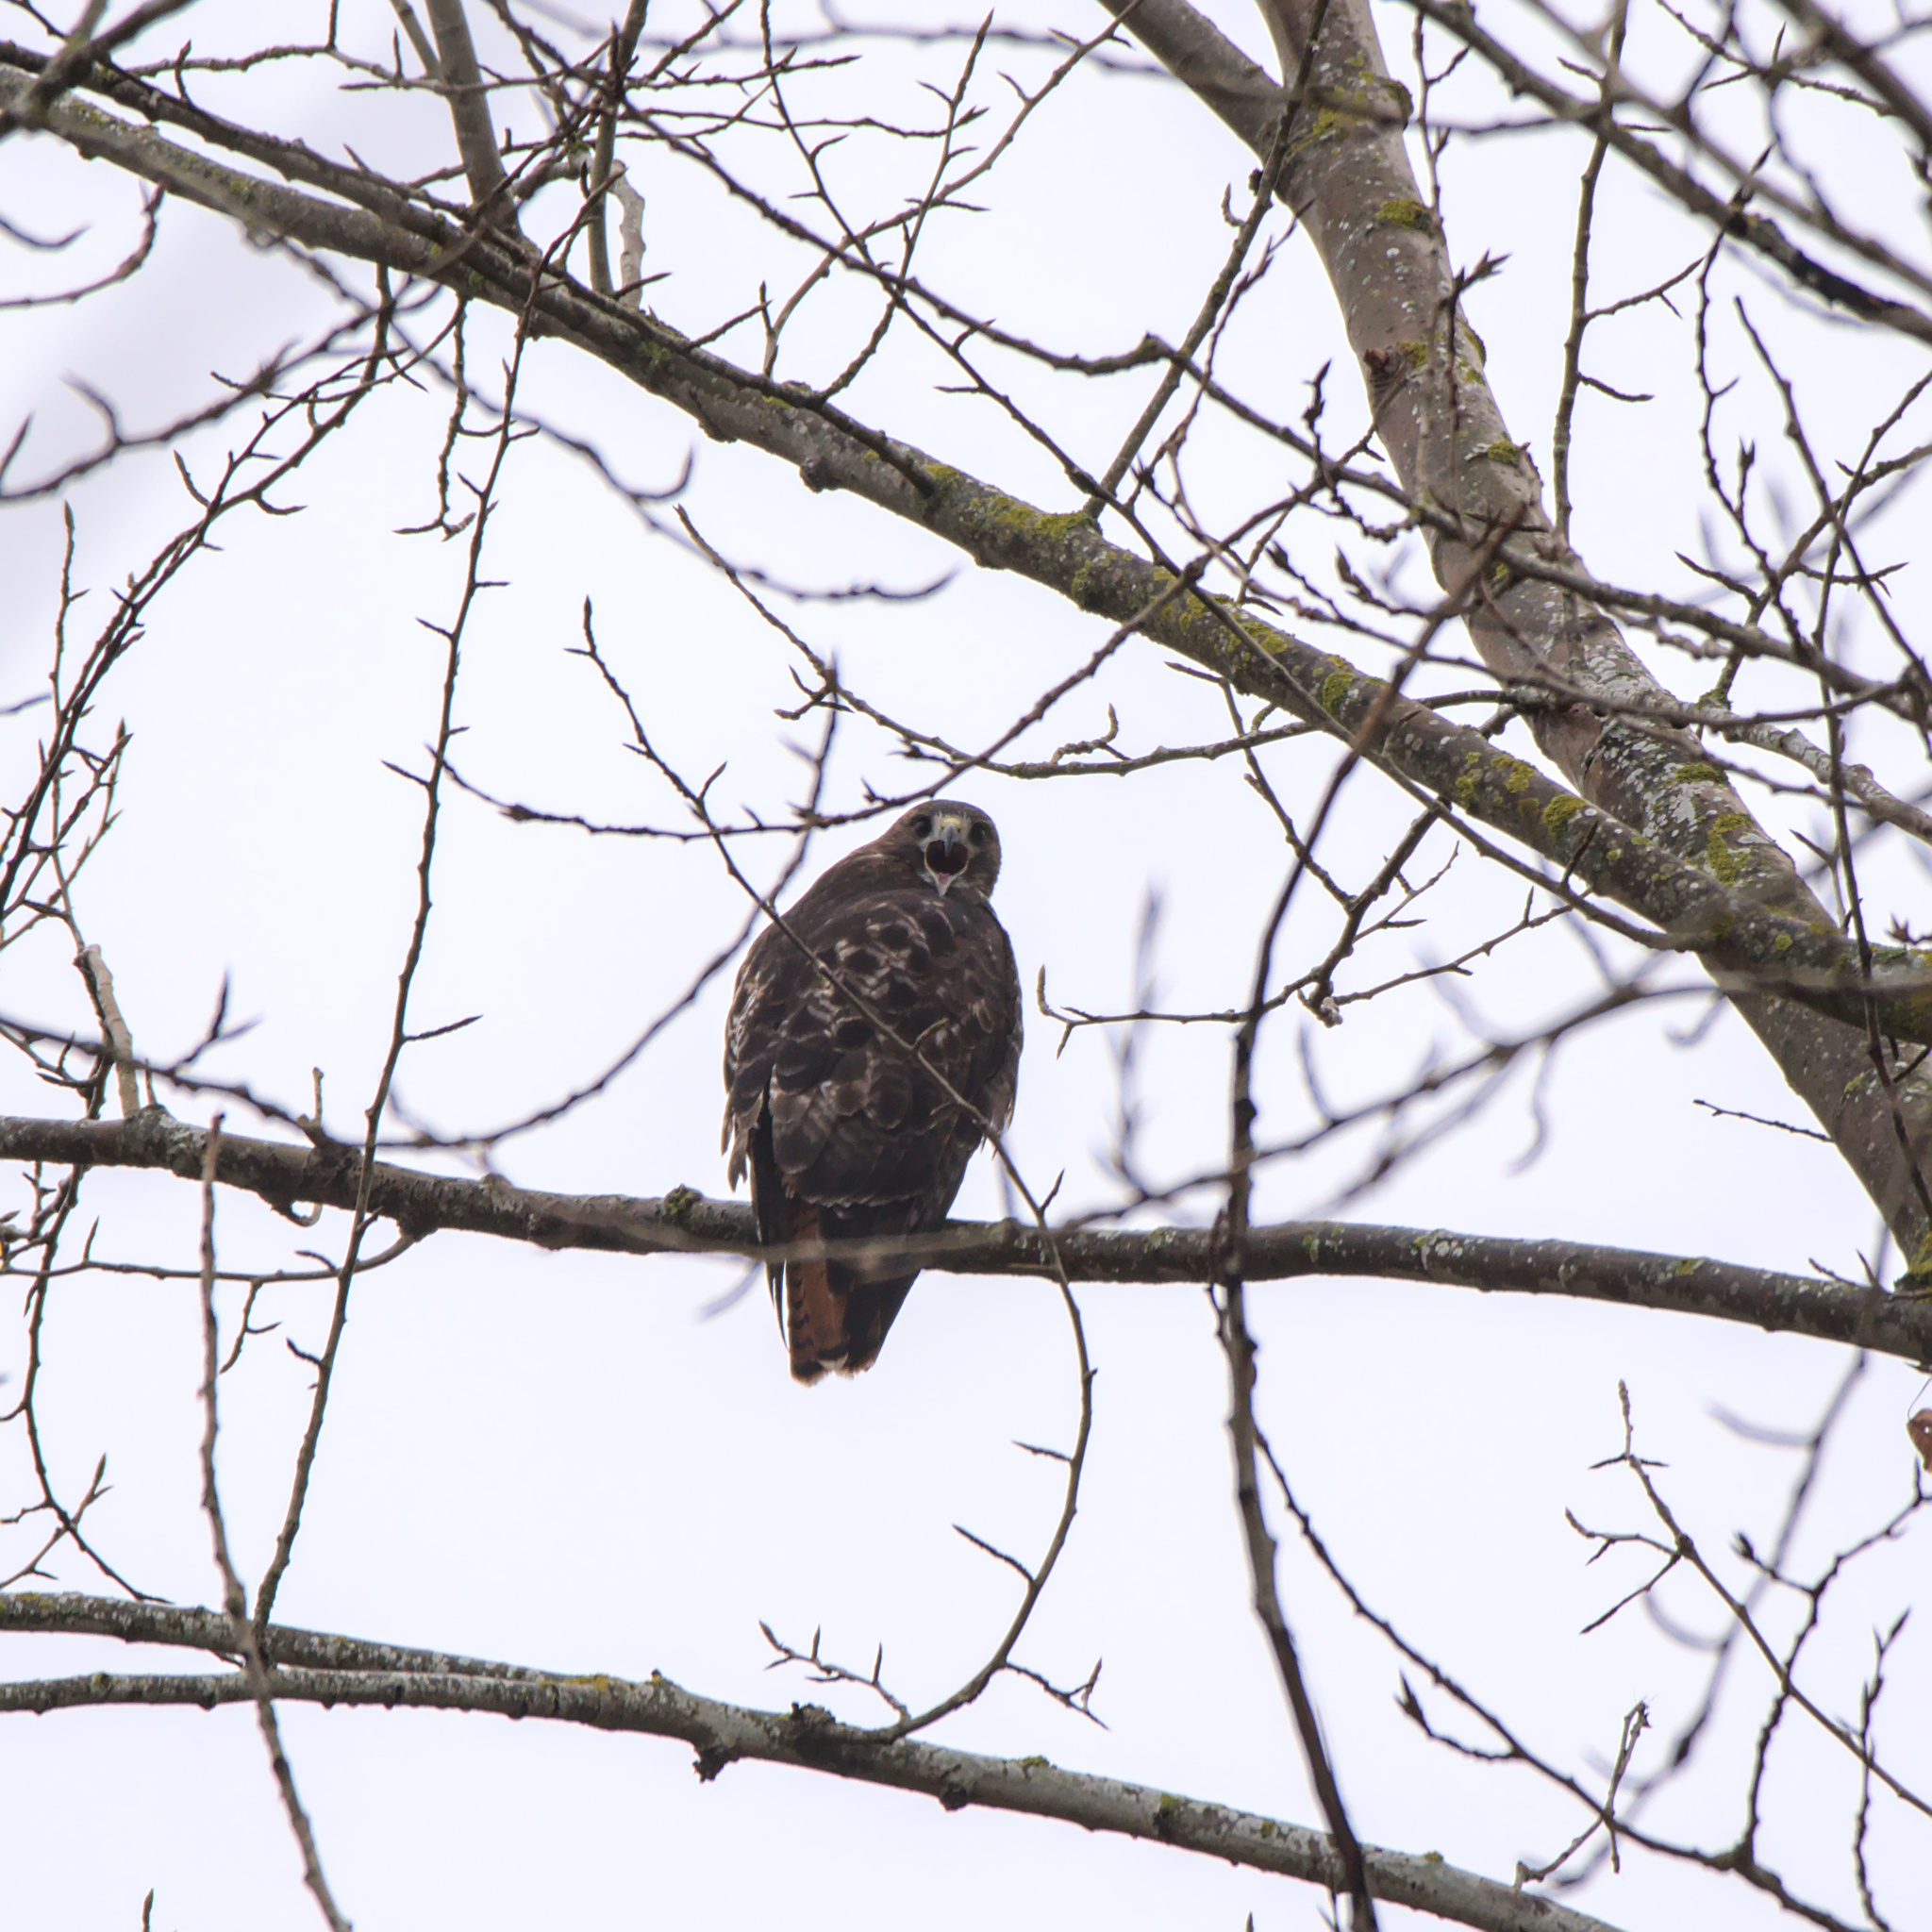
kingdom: Animalia
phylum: Chordata
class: Aves
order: Accipitriformes
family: Accipitridae
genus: Buteo
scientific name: Buteo jamaicensis
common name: Red-tailed hawk
